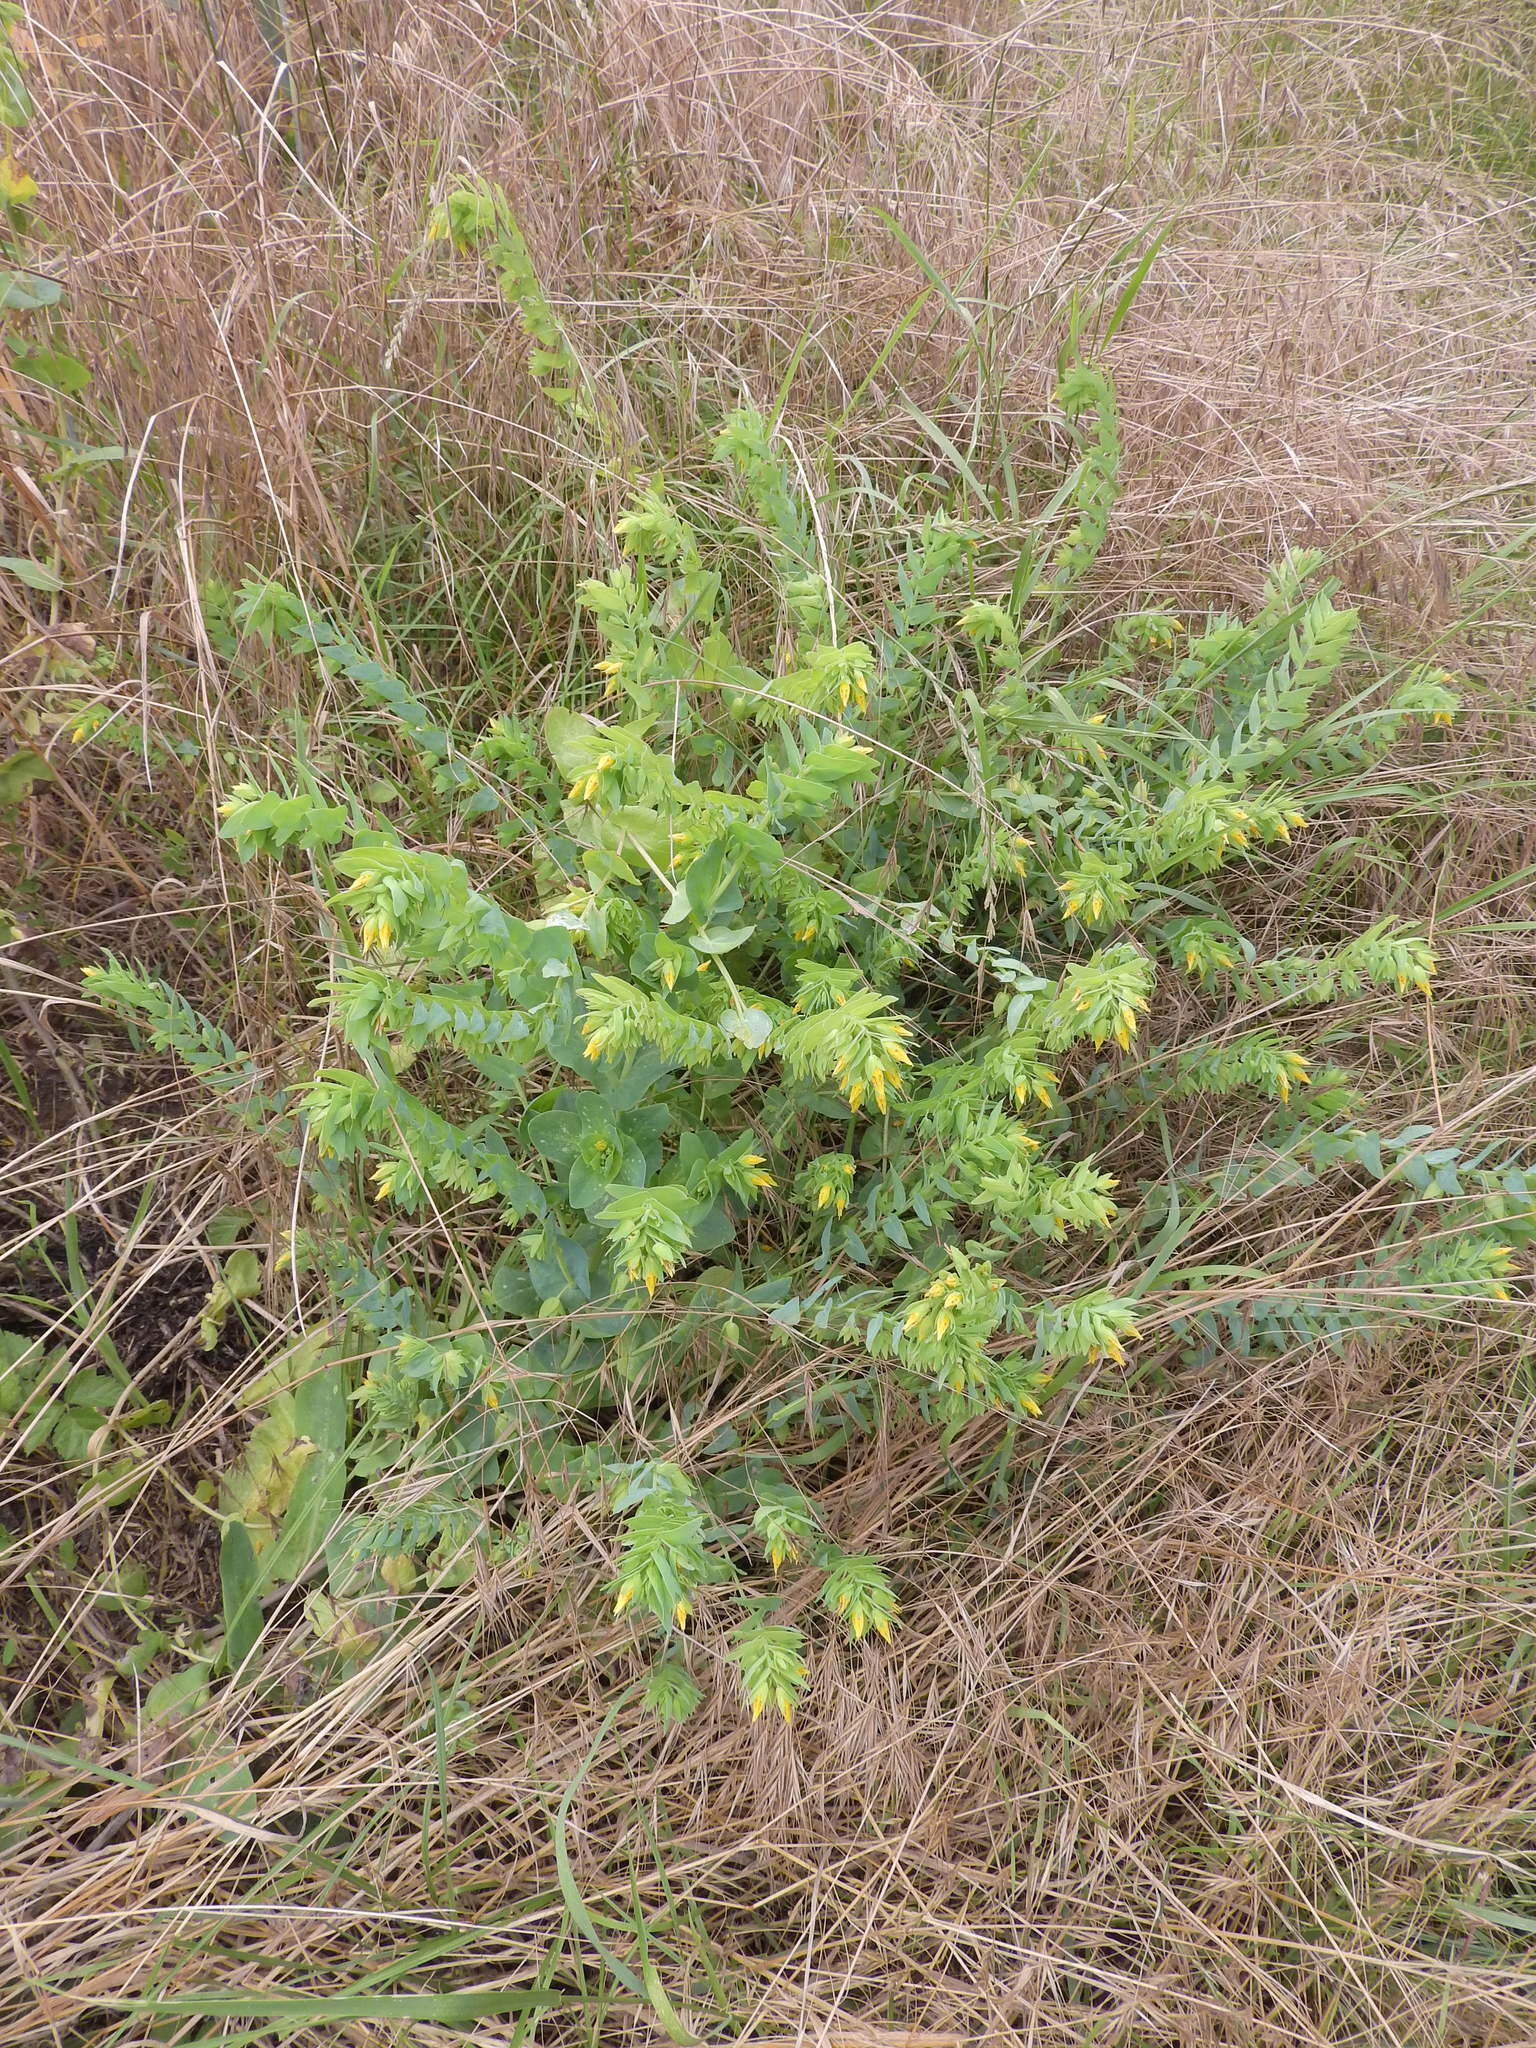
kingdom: Plantae
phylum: Tracheophyta
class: Magnoliopsida
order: Boraginales
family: Boraginaceae
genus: Cerinthe
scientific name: Cerinthe minor
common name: Lesser honeywort
